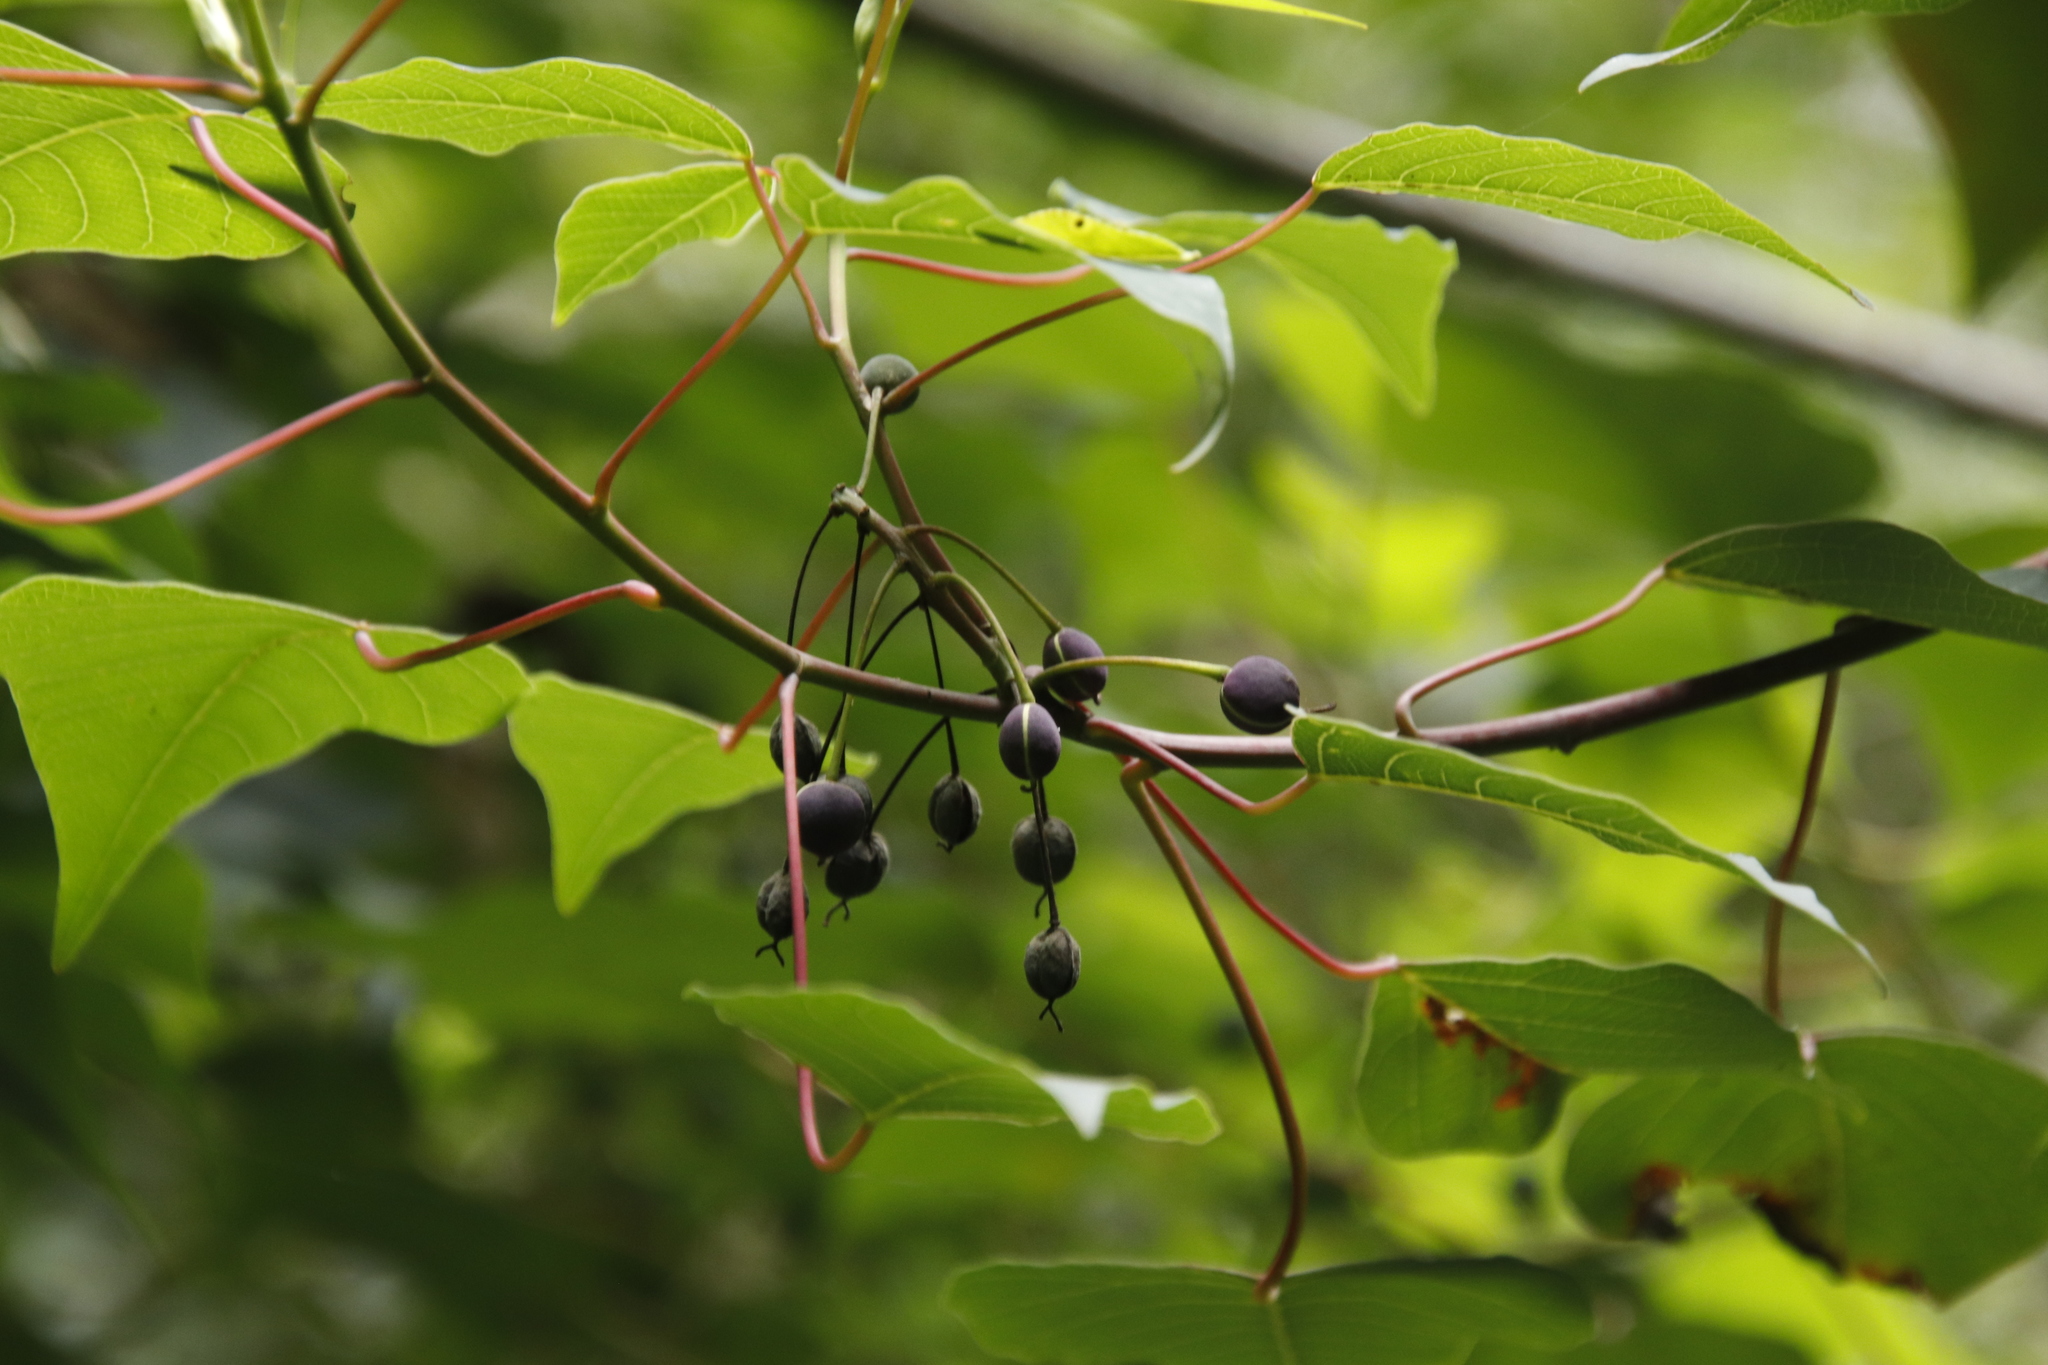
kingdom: Plantae
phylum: Tracheophyta
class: Magnoliopsida
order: Malpighiales
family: Euphorbiaceae
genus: Homalanthus
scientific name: Homalanthus populifolius
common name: Queensland poplar
